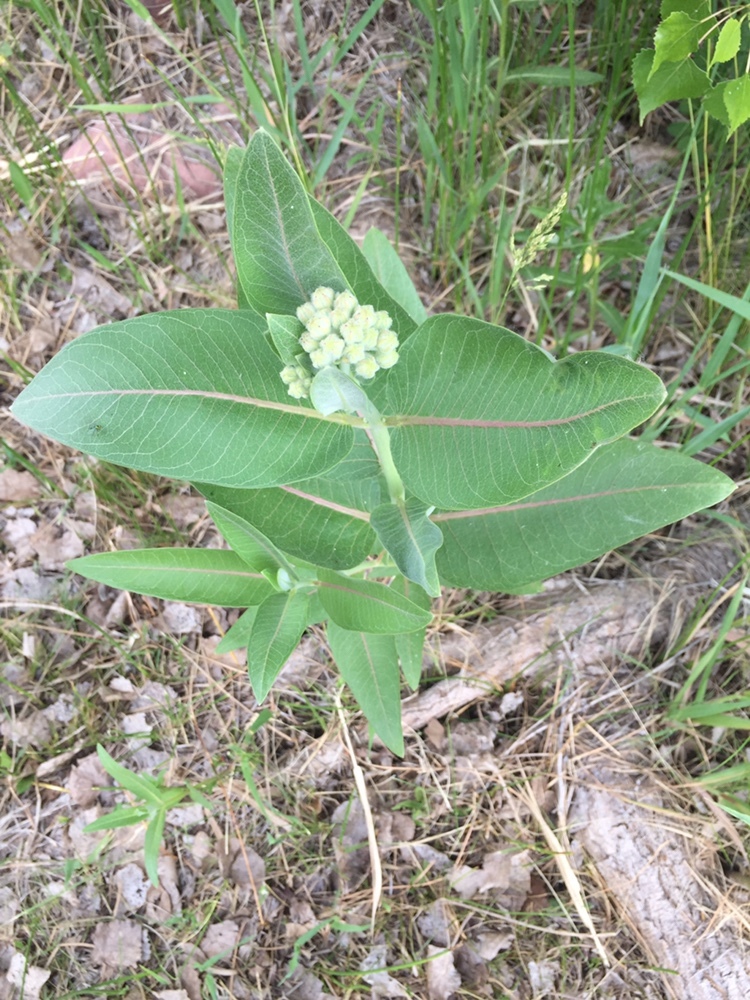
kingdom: Plantae
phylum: Tracheophyta
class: Magnoliopsida
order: Gentianales
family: Apocynaceae
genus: Asclepias
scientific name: Asclepias speciosa
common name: Showy milkweed
